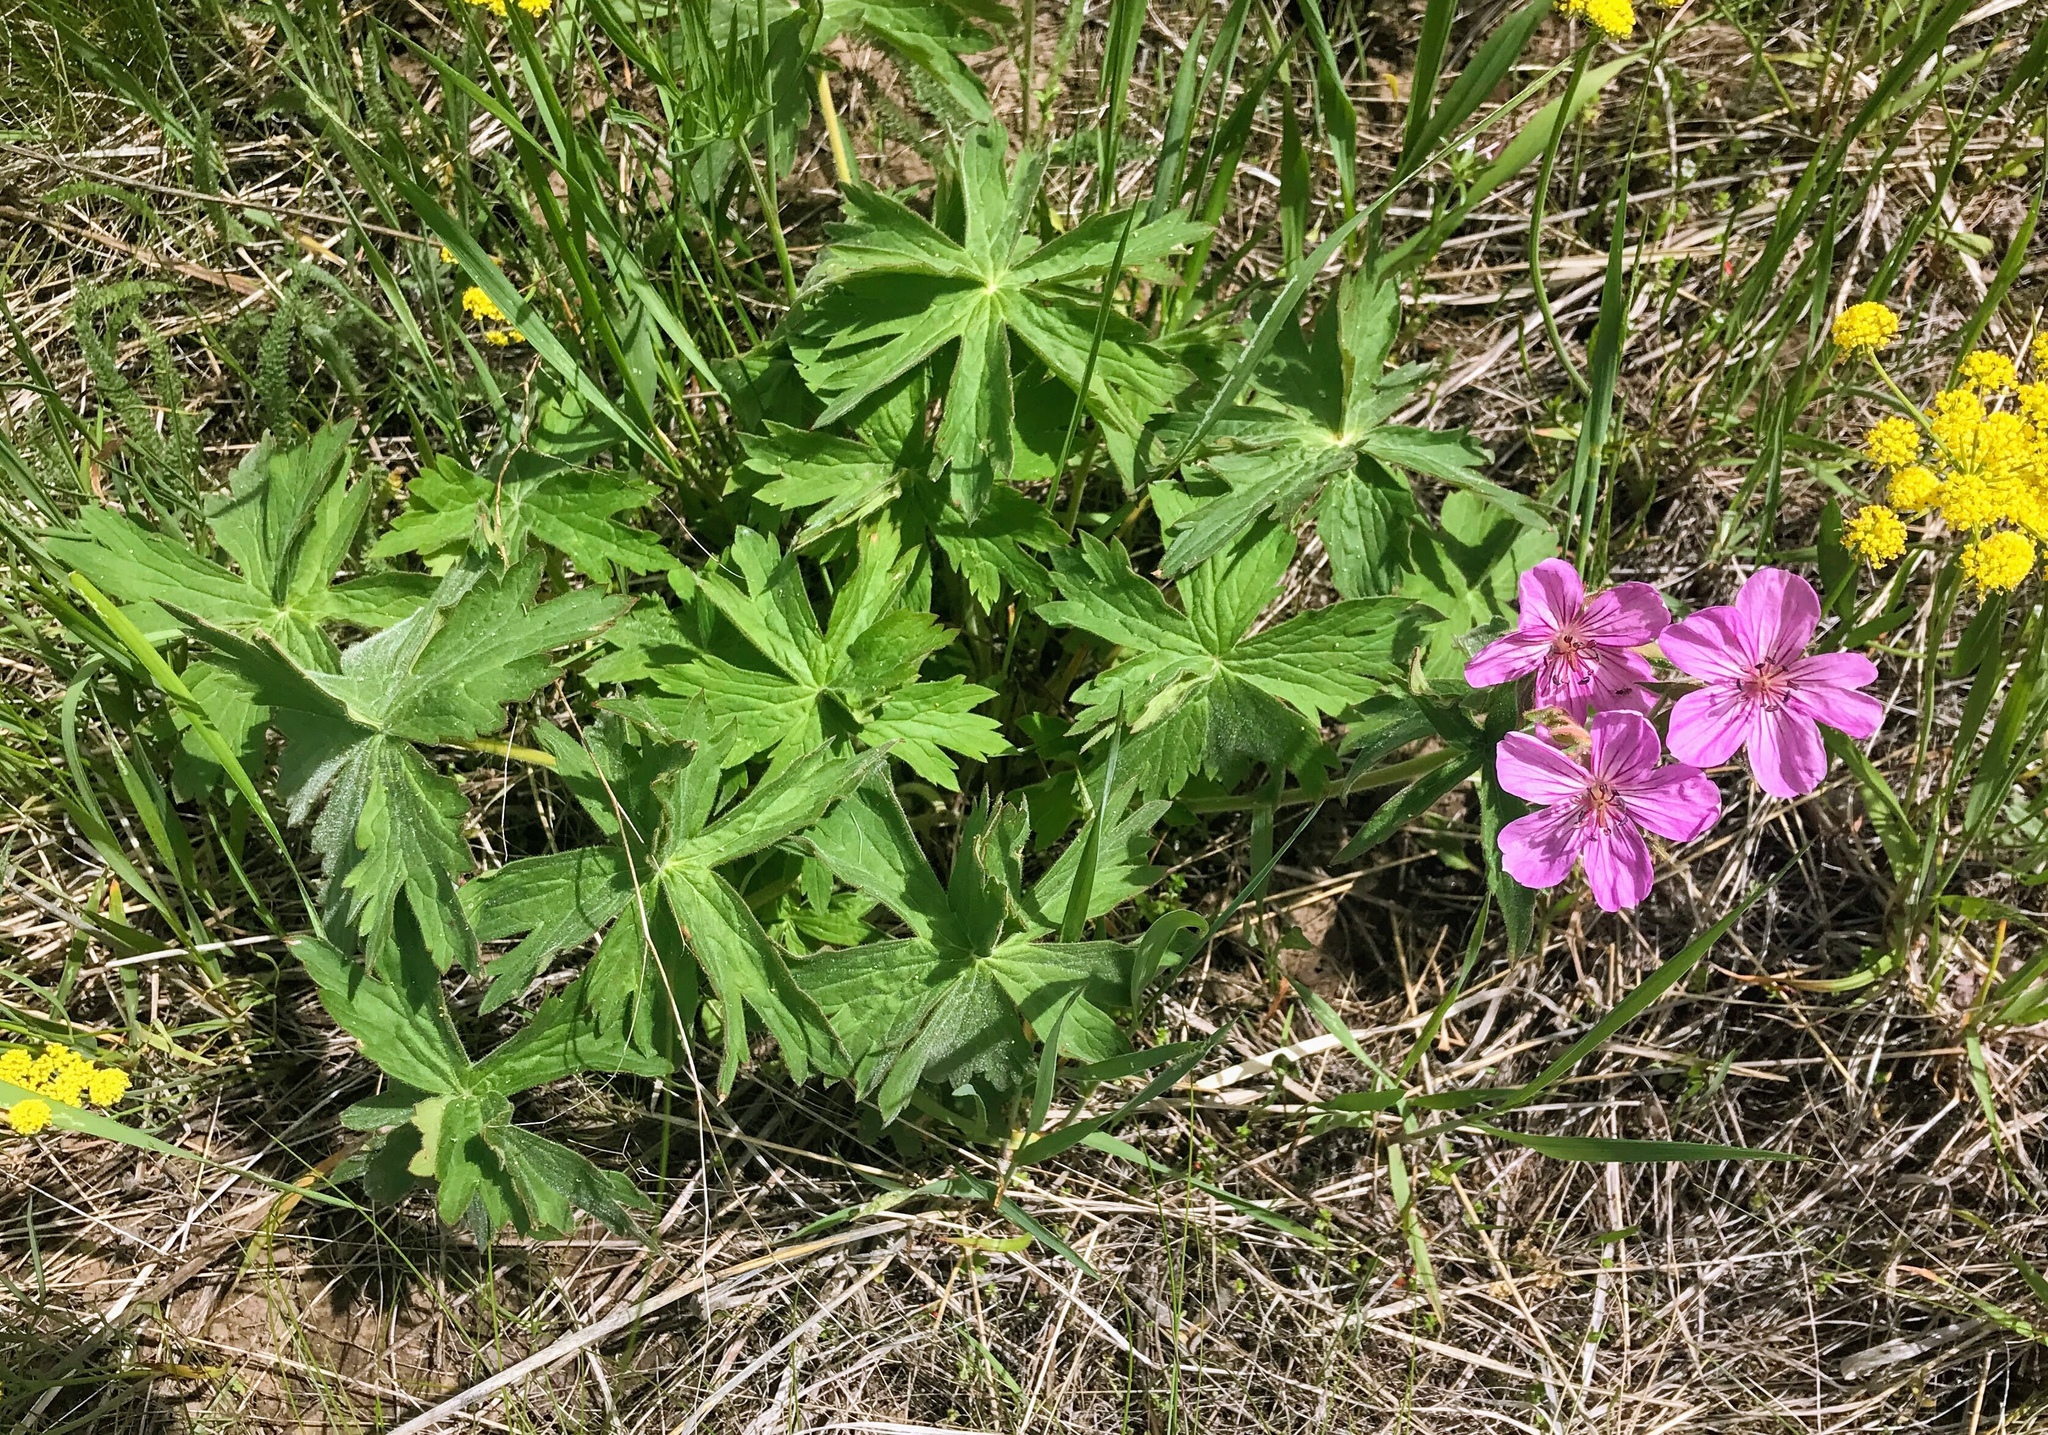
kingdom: Plantae
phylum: Tracheophyta
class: Magnoliopsida
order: Geraniales
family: Geraniaceae
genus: Geranium
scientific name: Geranium viscosissimum
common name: Purple geranium
